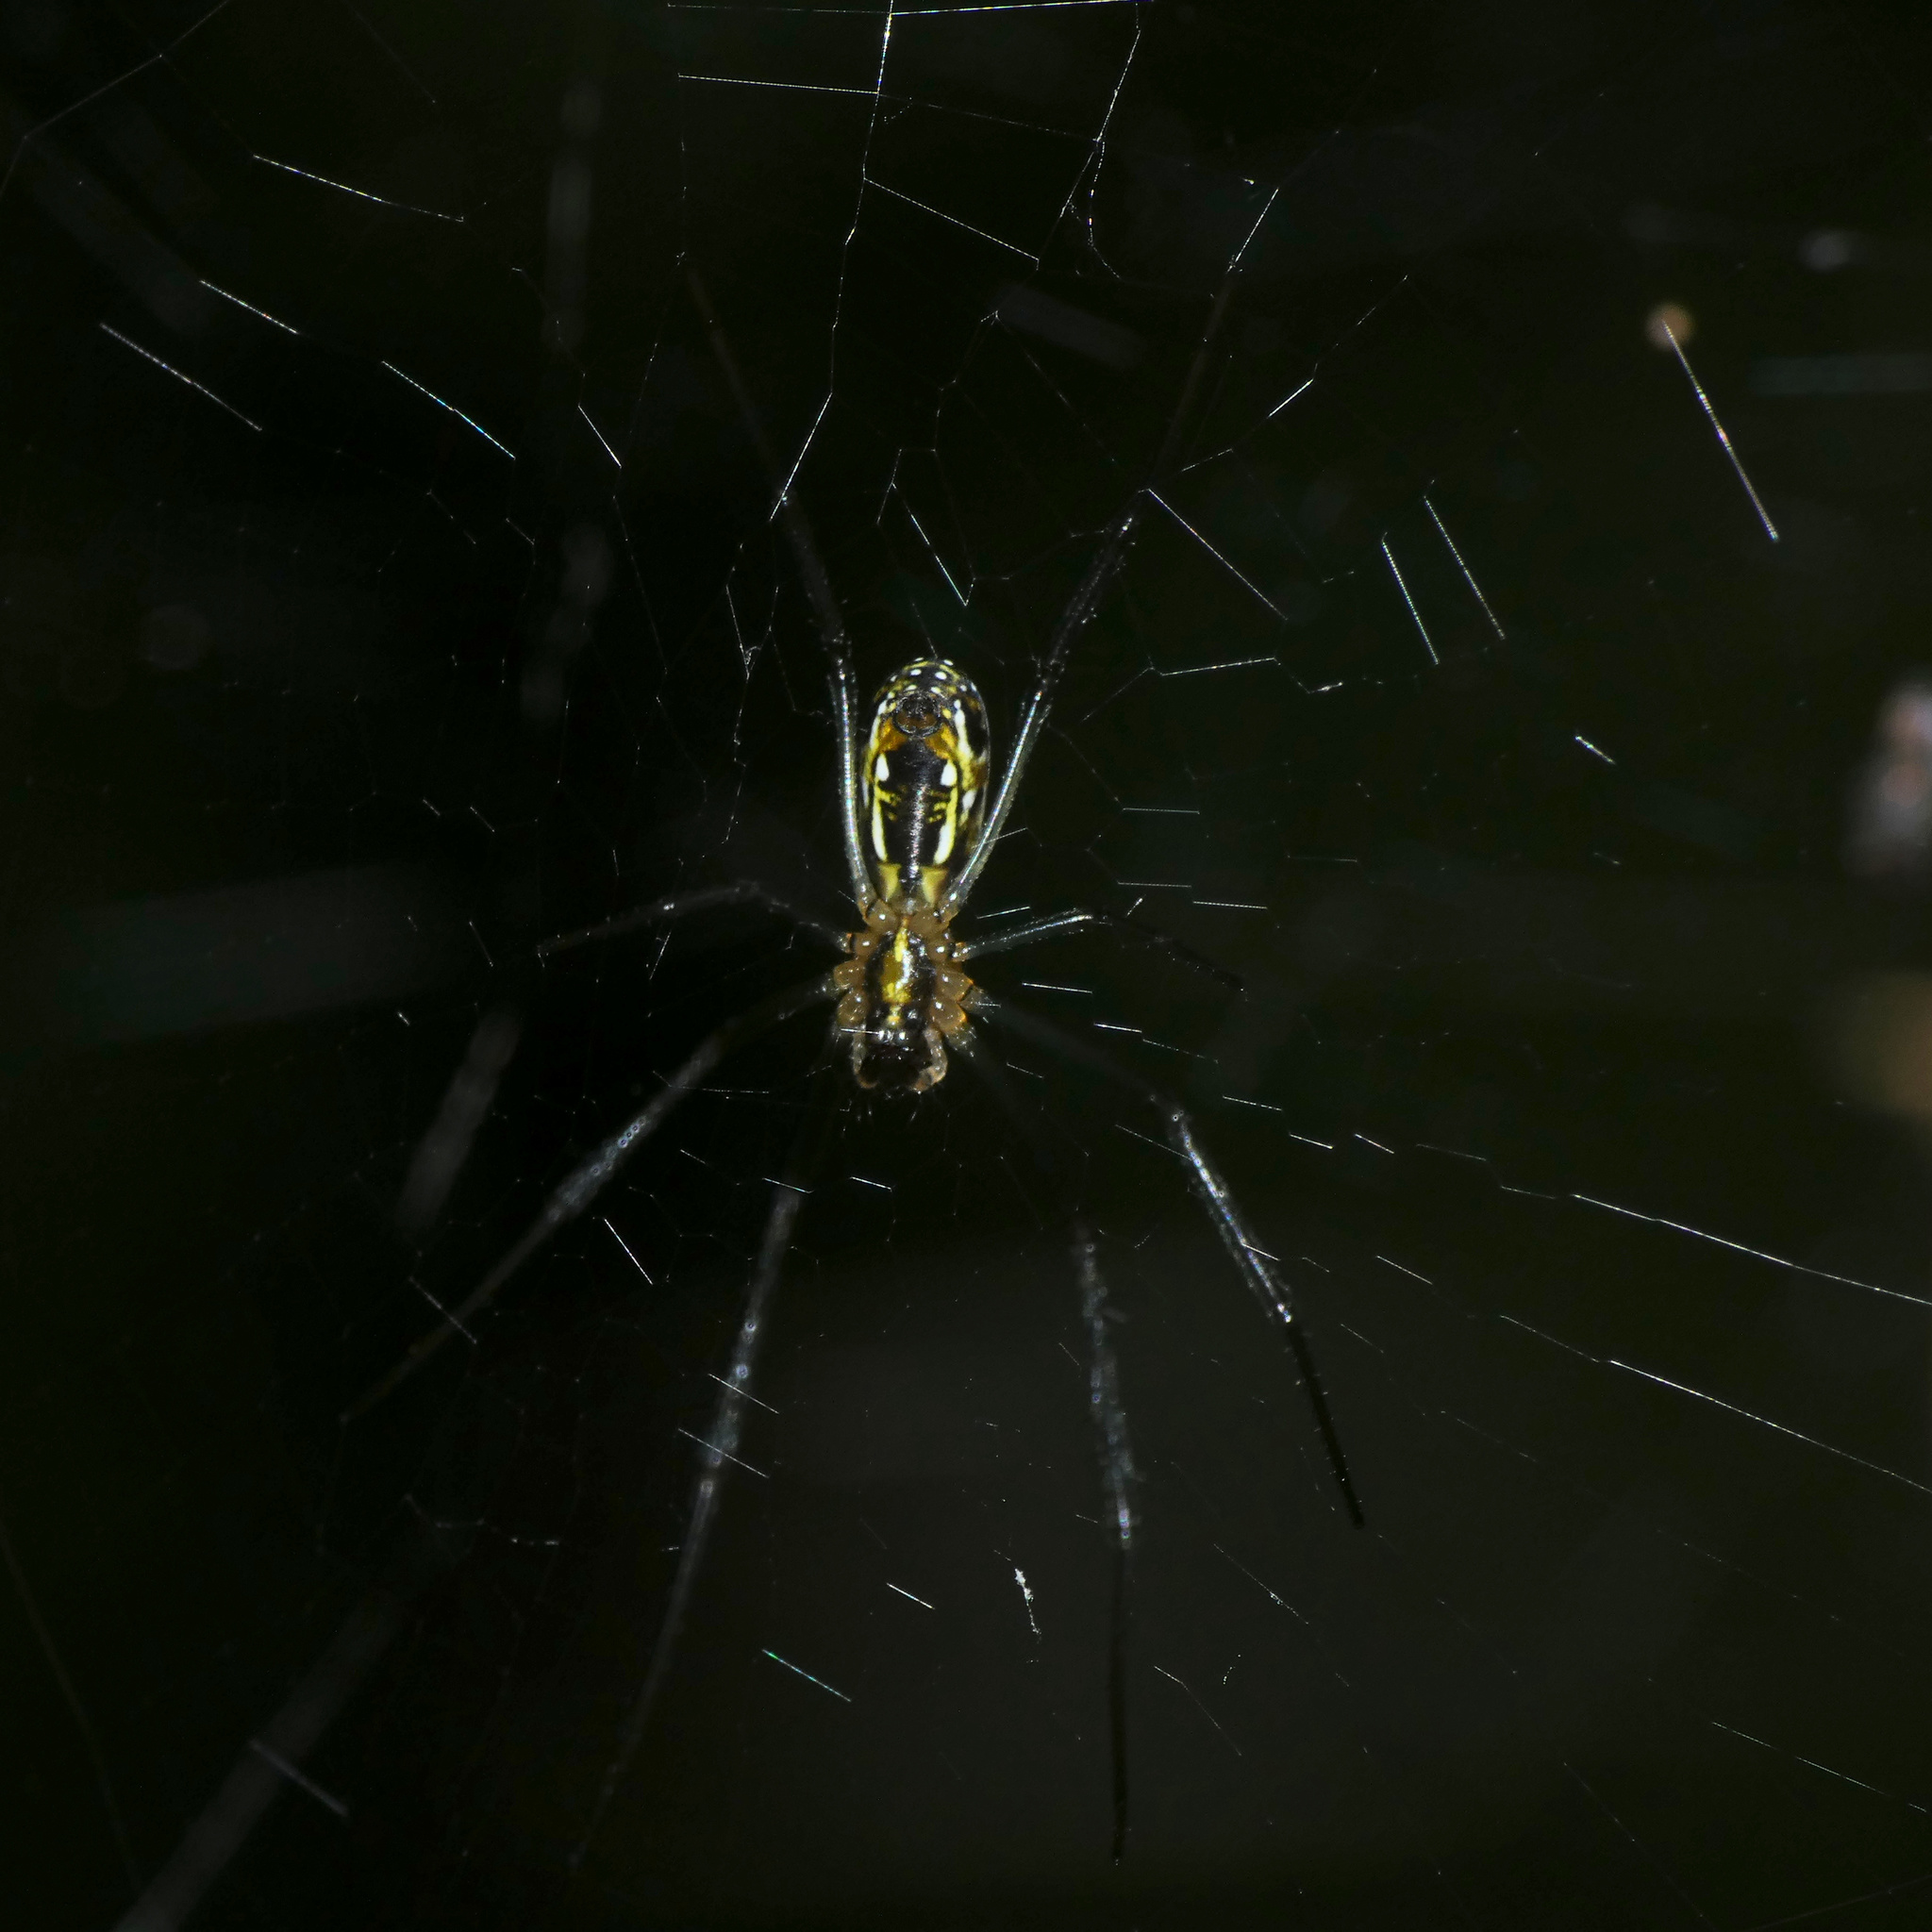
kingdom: Animalia
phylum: Arthropoda
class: Arachnida
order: Araneae
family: Araneidae
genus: Trichonephila
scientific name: Trichonephila fenestrata
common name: Hairy golden orb weaver
